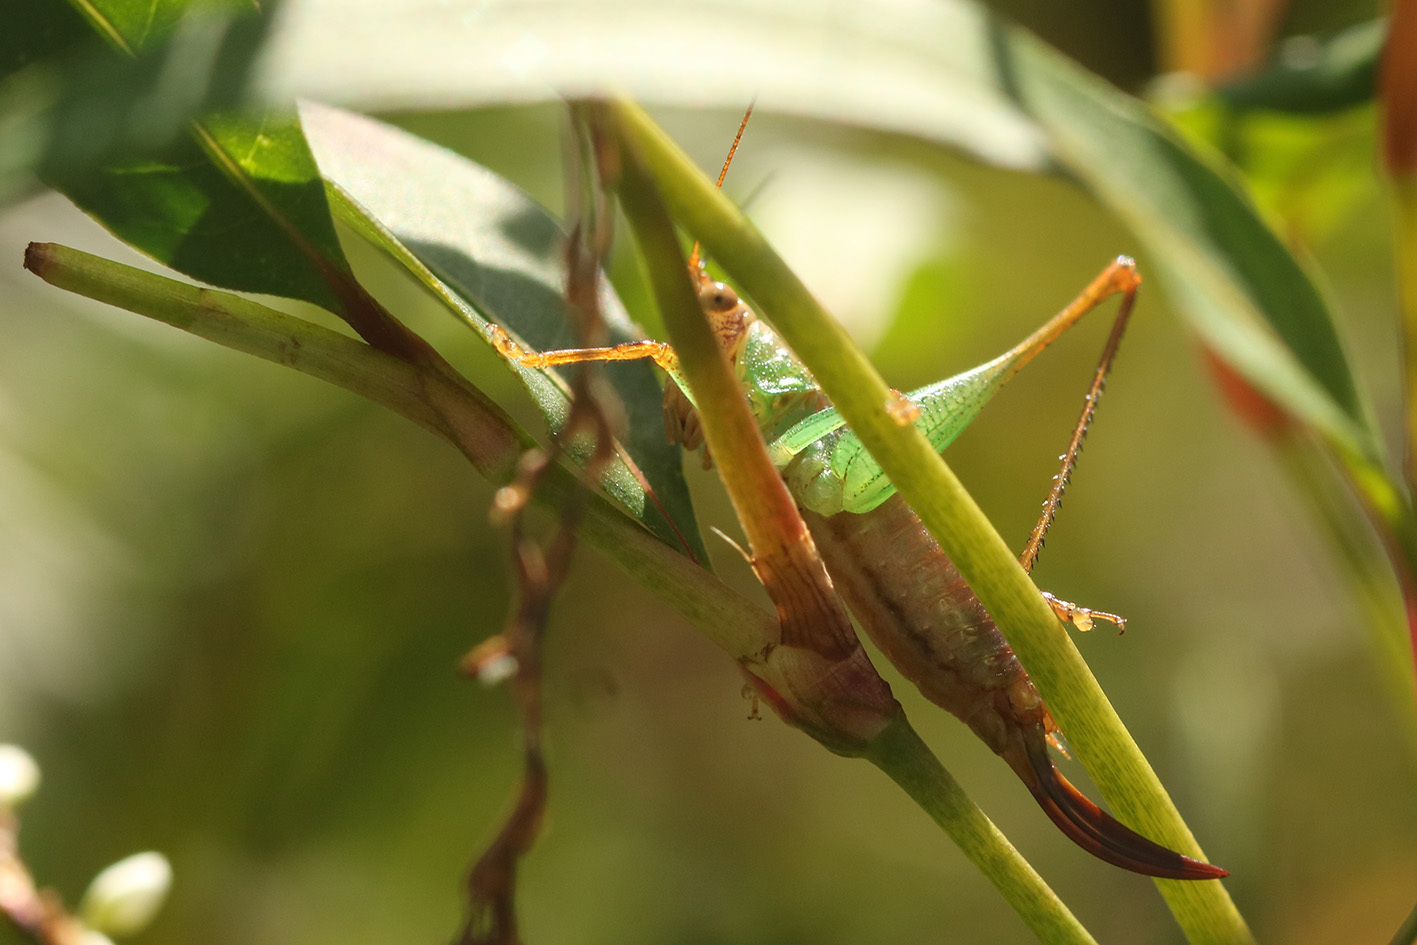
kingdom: Animalia
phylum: Arthropoda
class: Insecta
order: Orthoptera
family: Tettigoniidae
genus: Conocephalus
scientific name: Conocephalus cinnamonifrons
